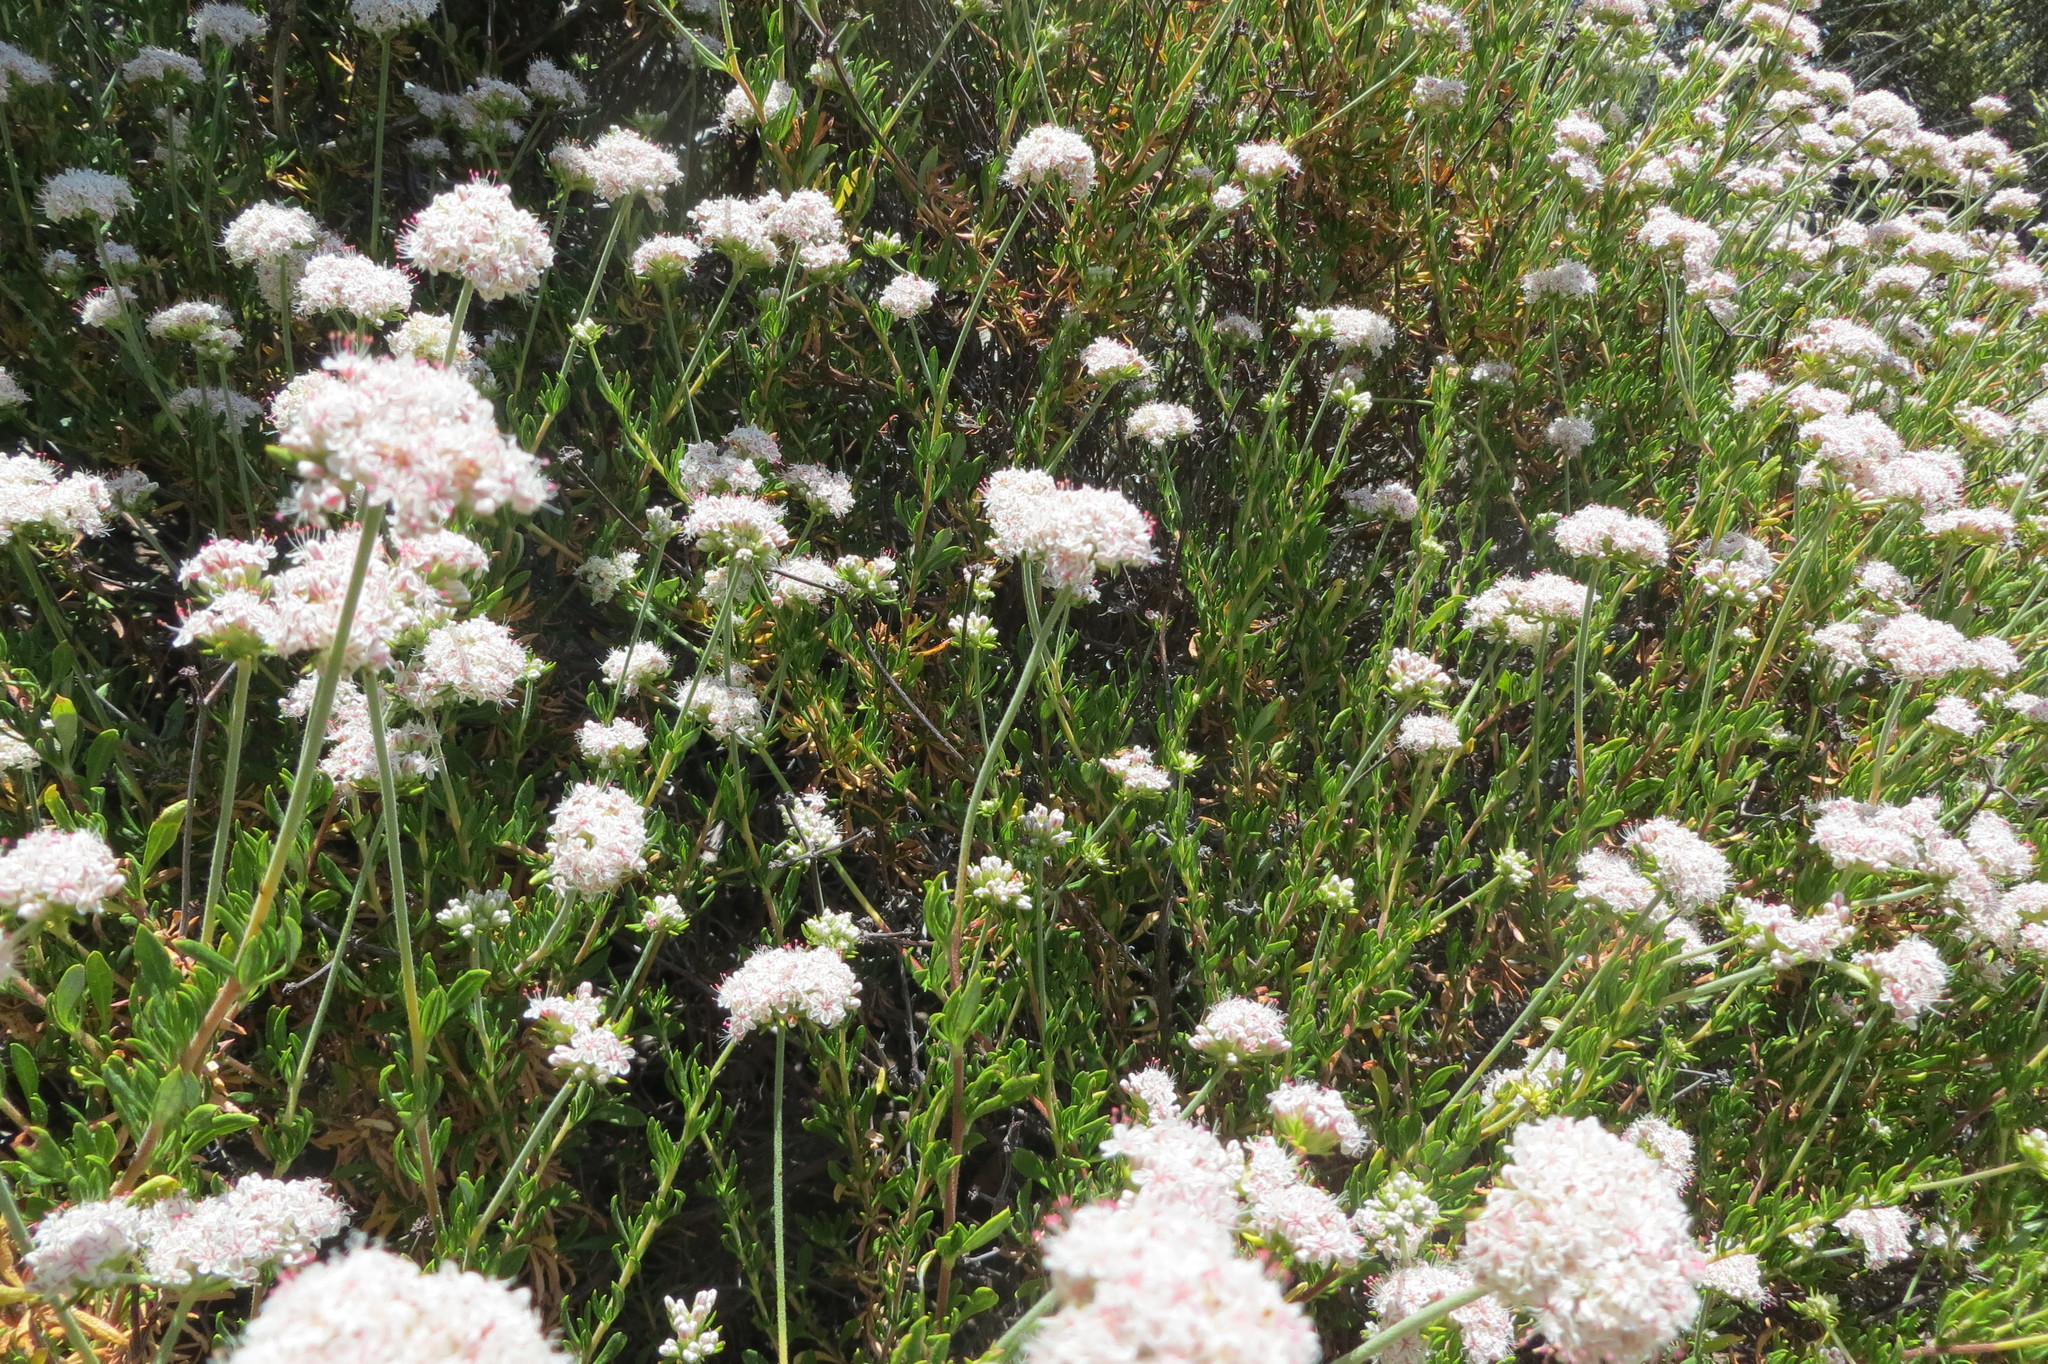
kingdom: Plantae
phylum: Tracheophyta
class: Magnoliopsida
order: Caryophyllales
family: Polygonaceae
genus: Eriogonum
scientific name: Eriogonum fasciculatum
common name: California wild buckwheat
